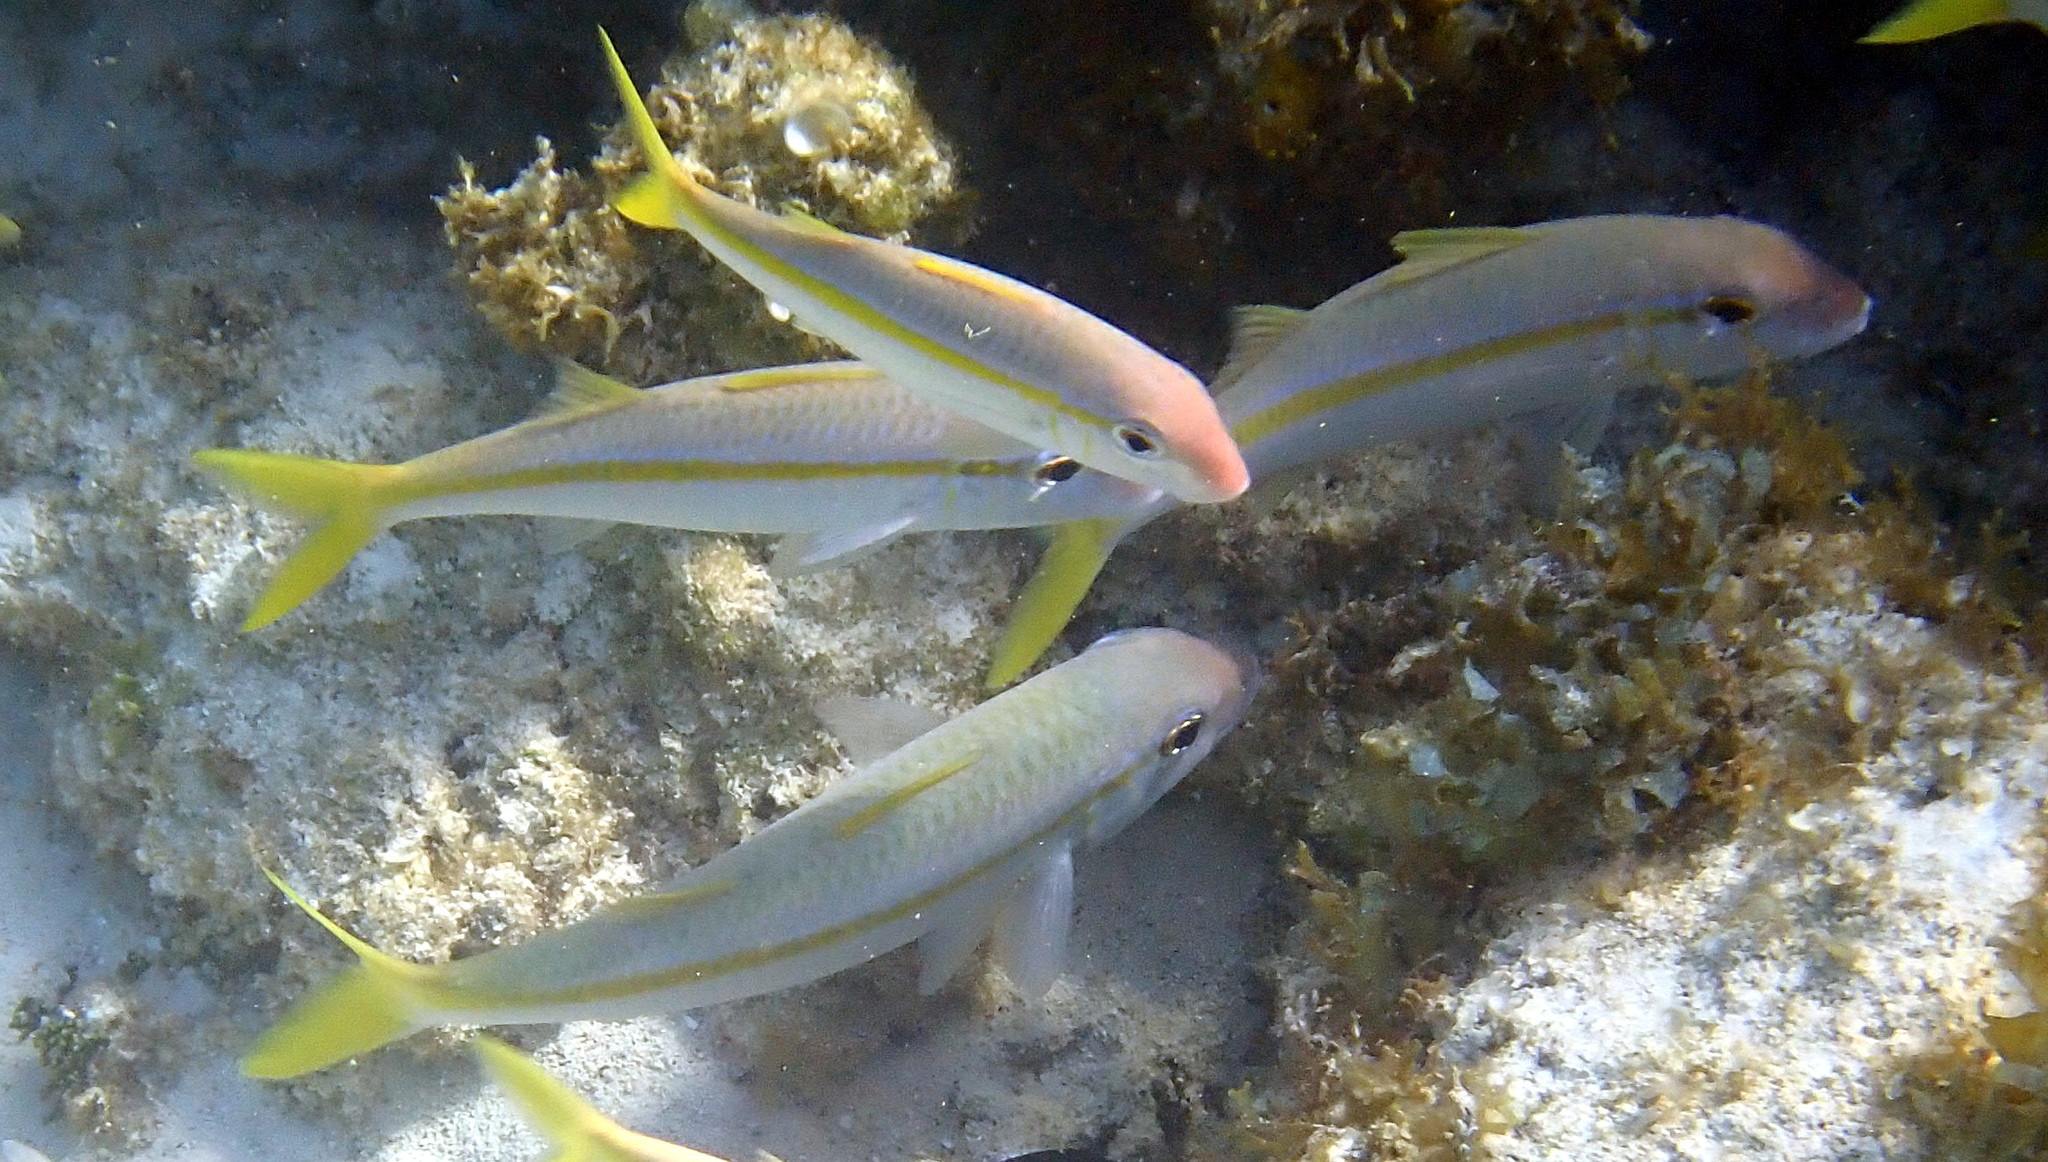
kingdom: Animalia
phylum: Chordata
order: Perciformes
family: Mullidae
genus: Mulloidichthys
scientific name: Mulloidichthys martinicus
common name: Yellow goatfish
